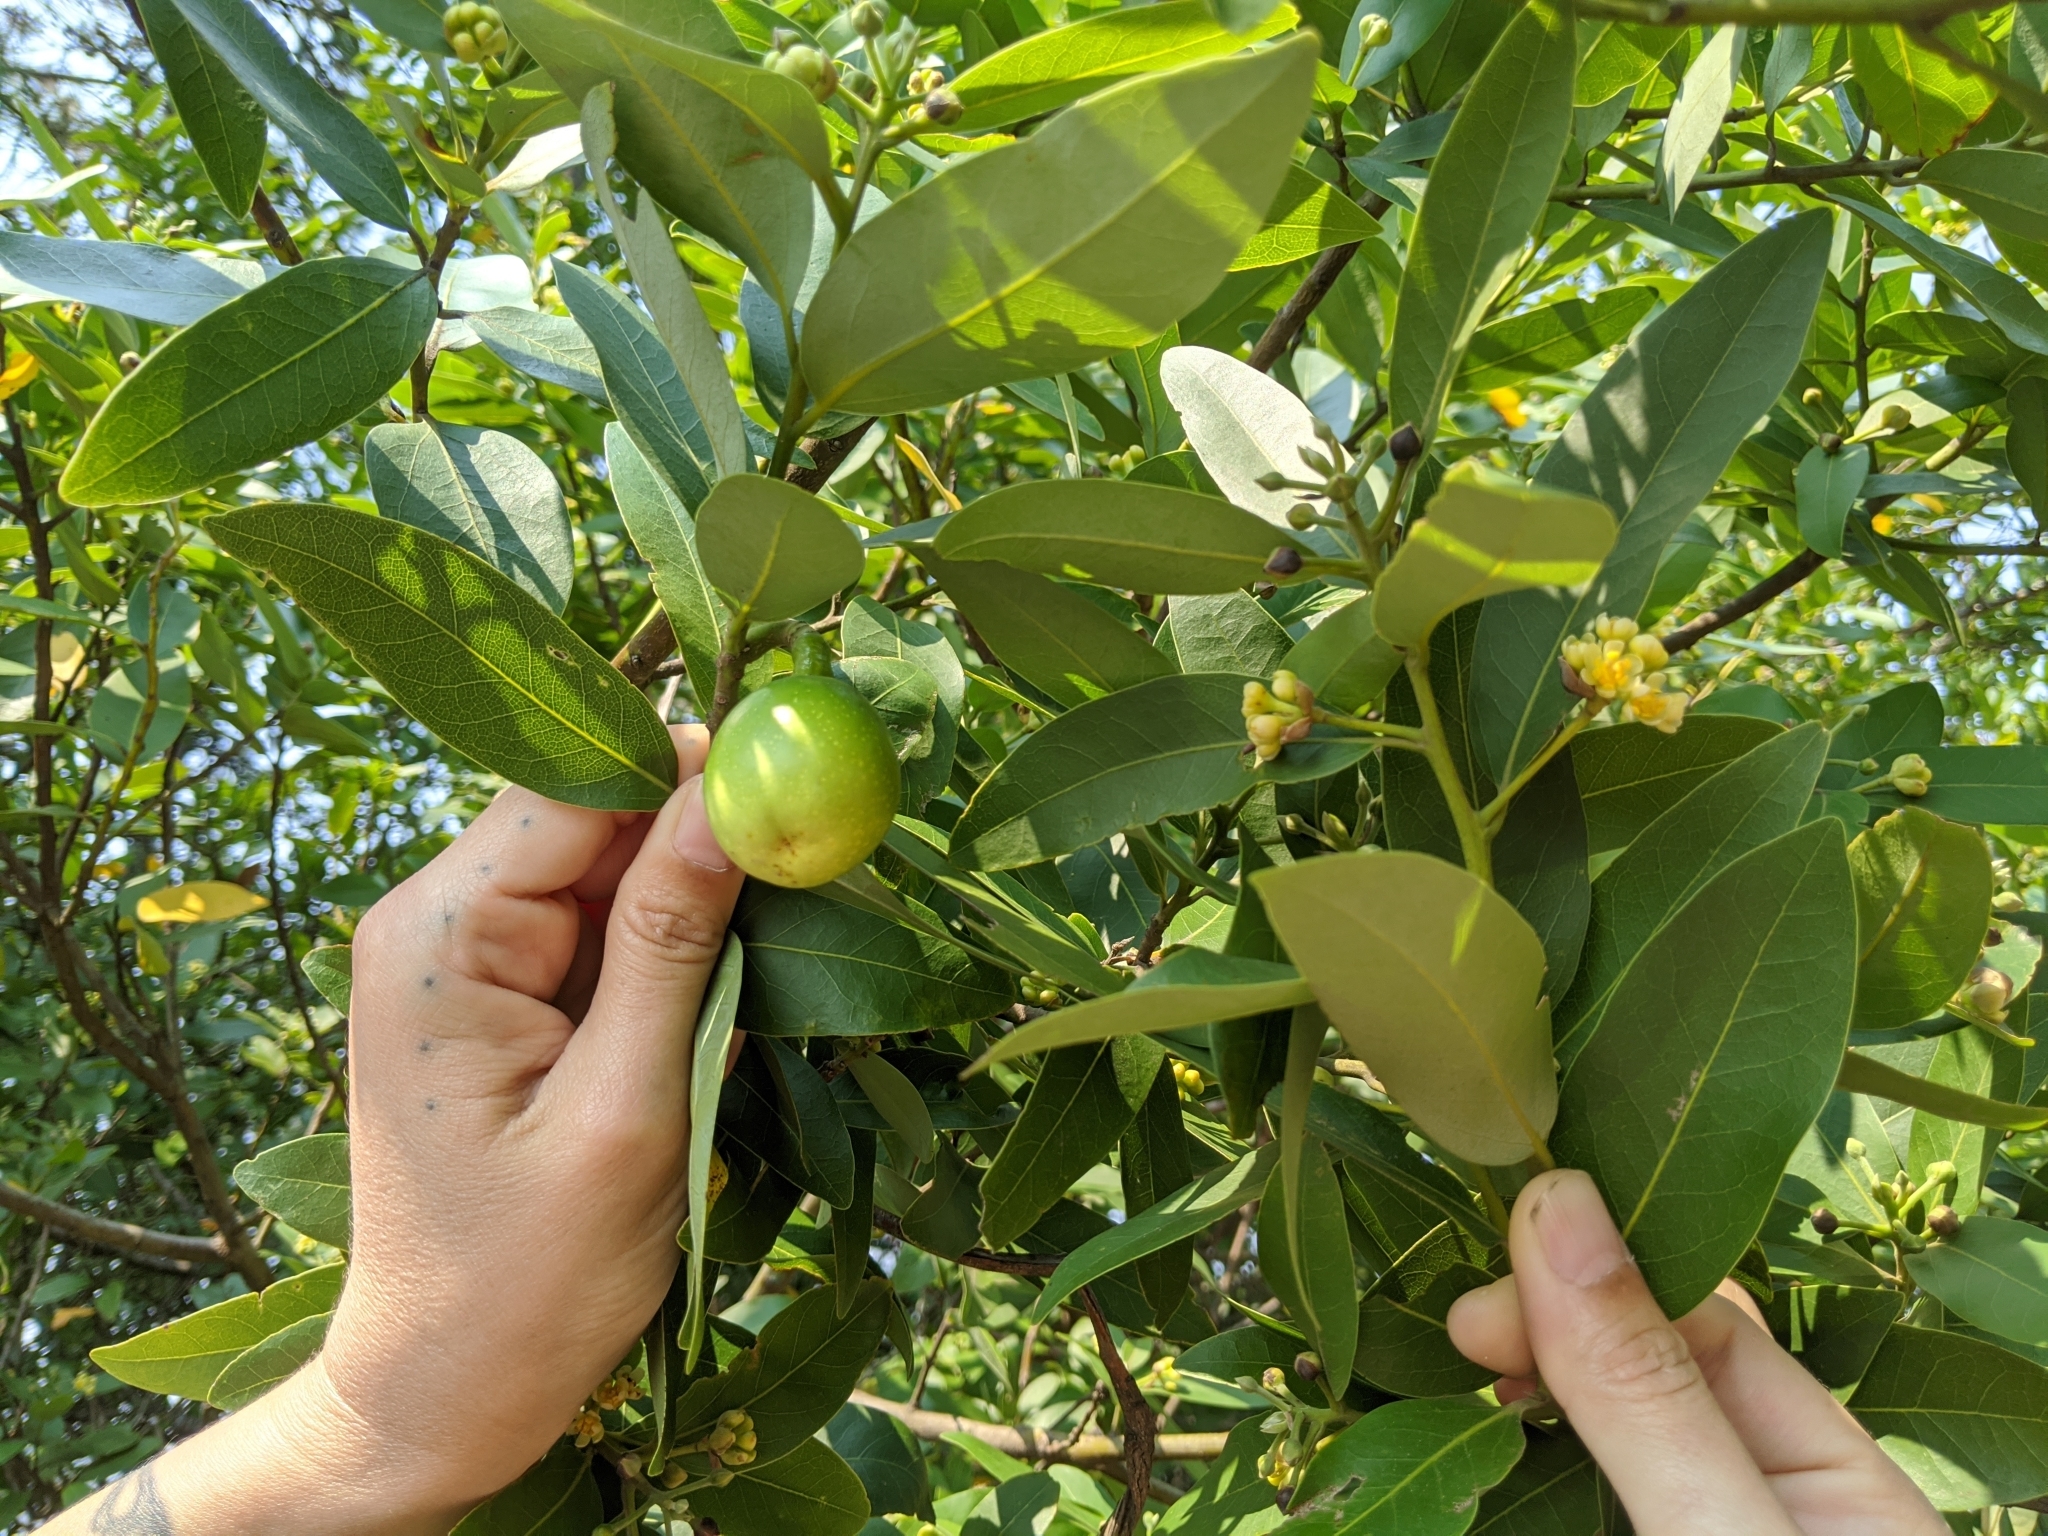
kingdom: Plantae
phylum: Tracheophyta
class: Magnoliopsida
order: Laurales
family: Lauraceae
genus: Umbellularia
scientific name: Umbellularia californica
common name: California bay
